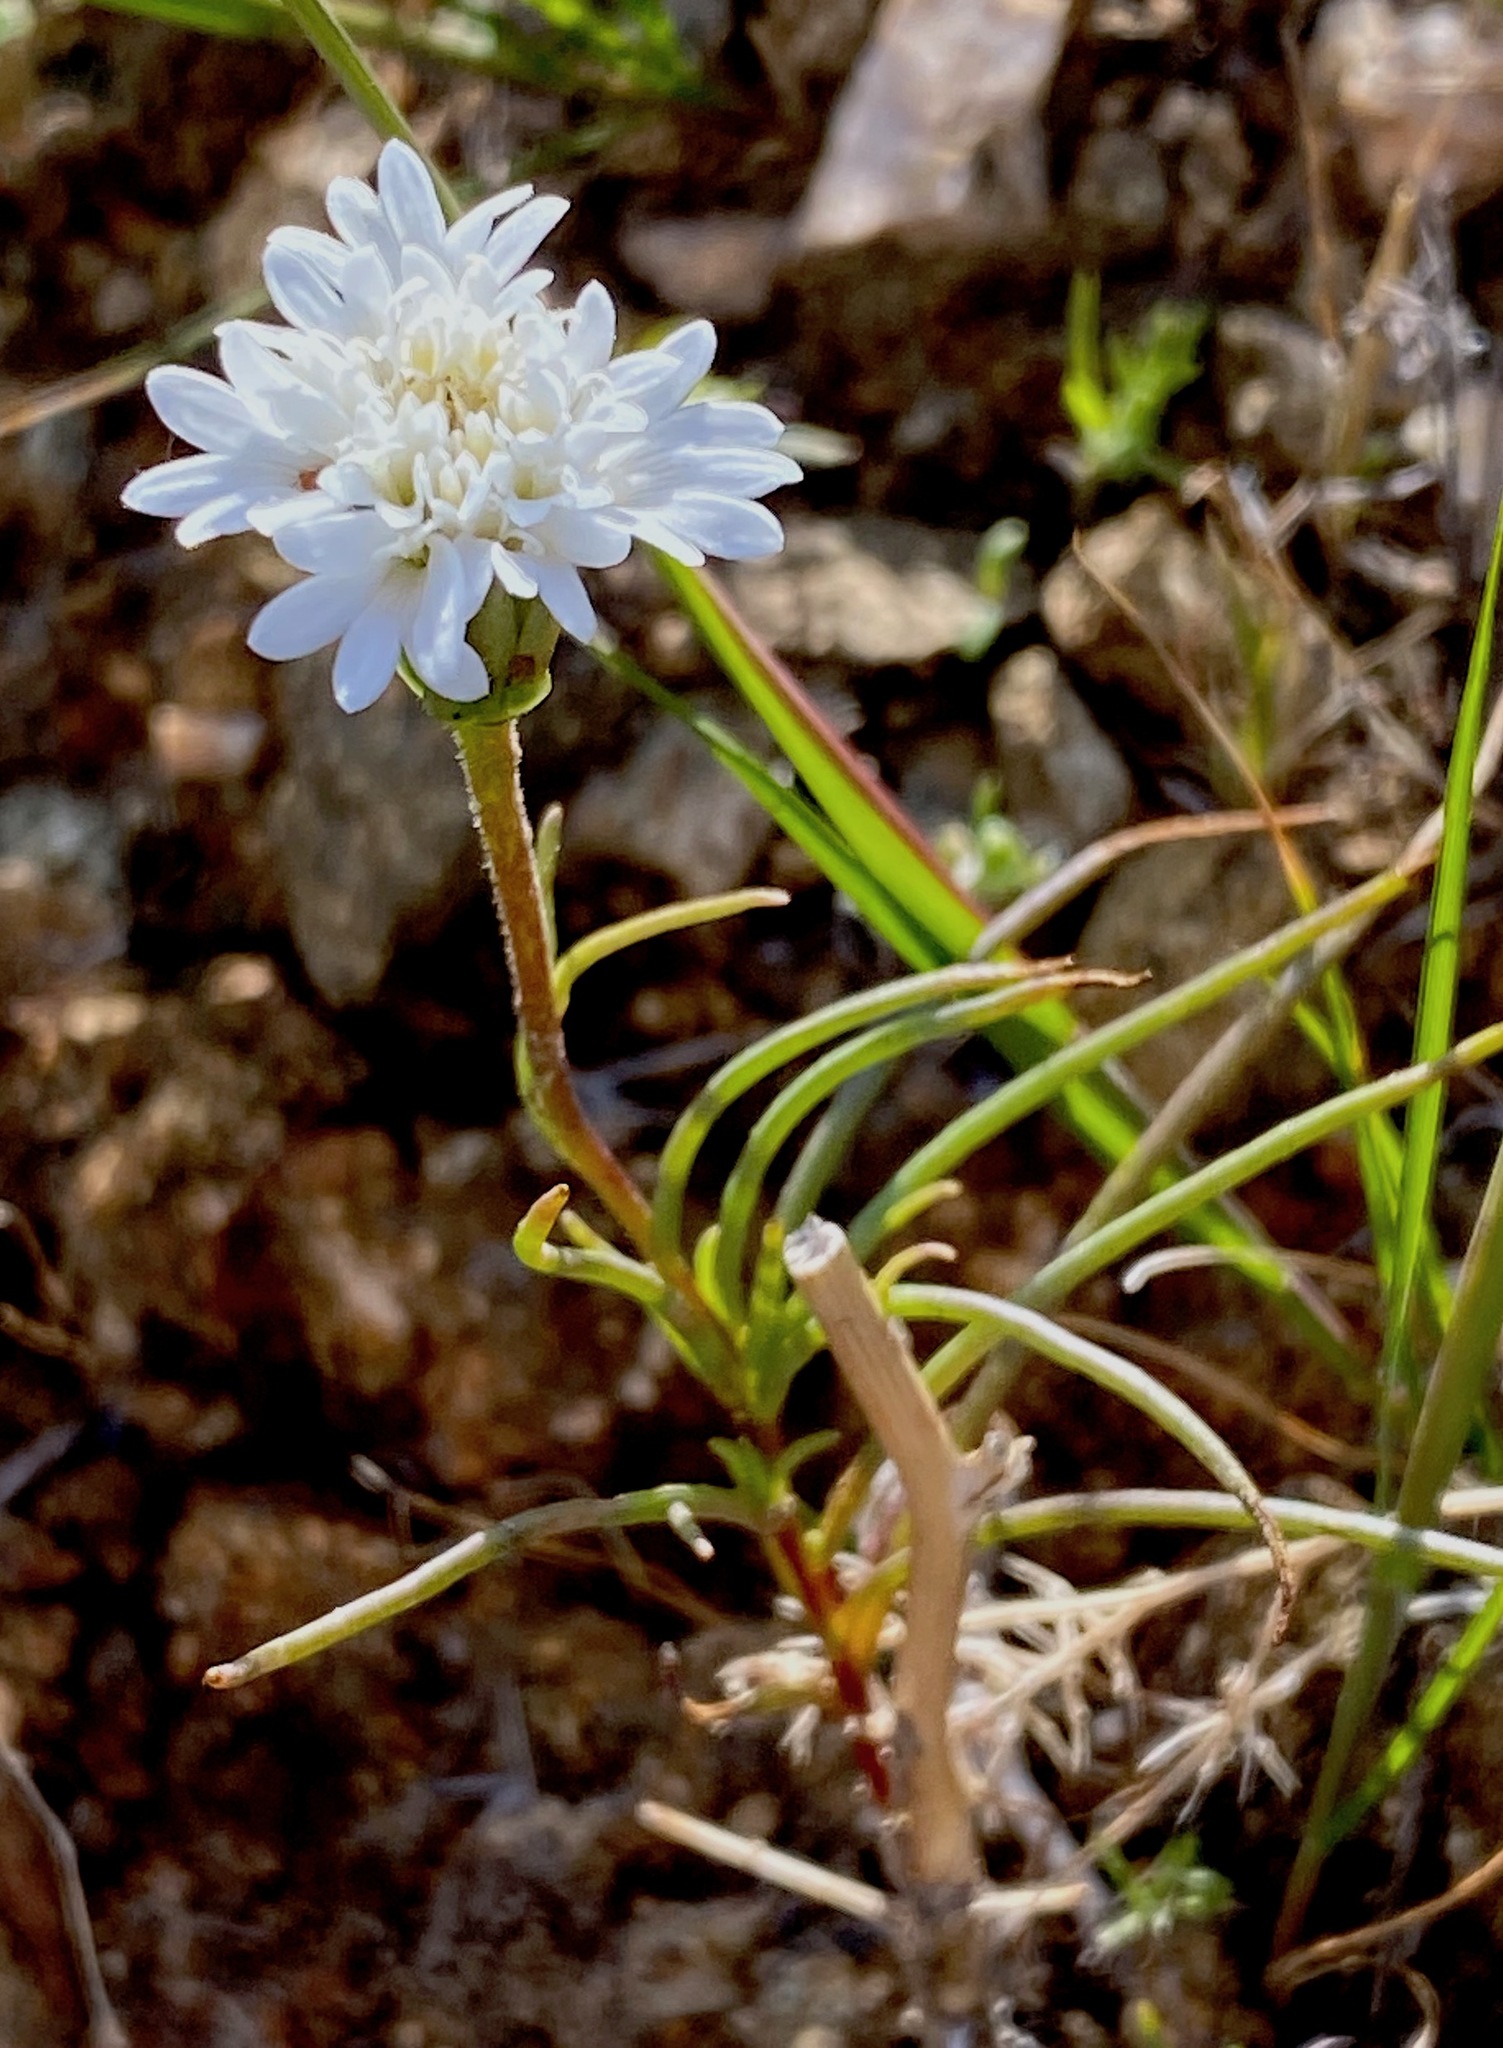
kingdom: Plantae
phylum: Tracheophyta
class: Magnoliopsida
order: Asterales
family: Asteraceae
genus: Chaenactis
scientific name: Chaenactis fremontii
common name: Fremont pincushion
